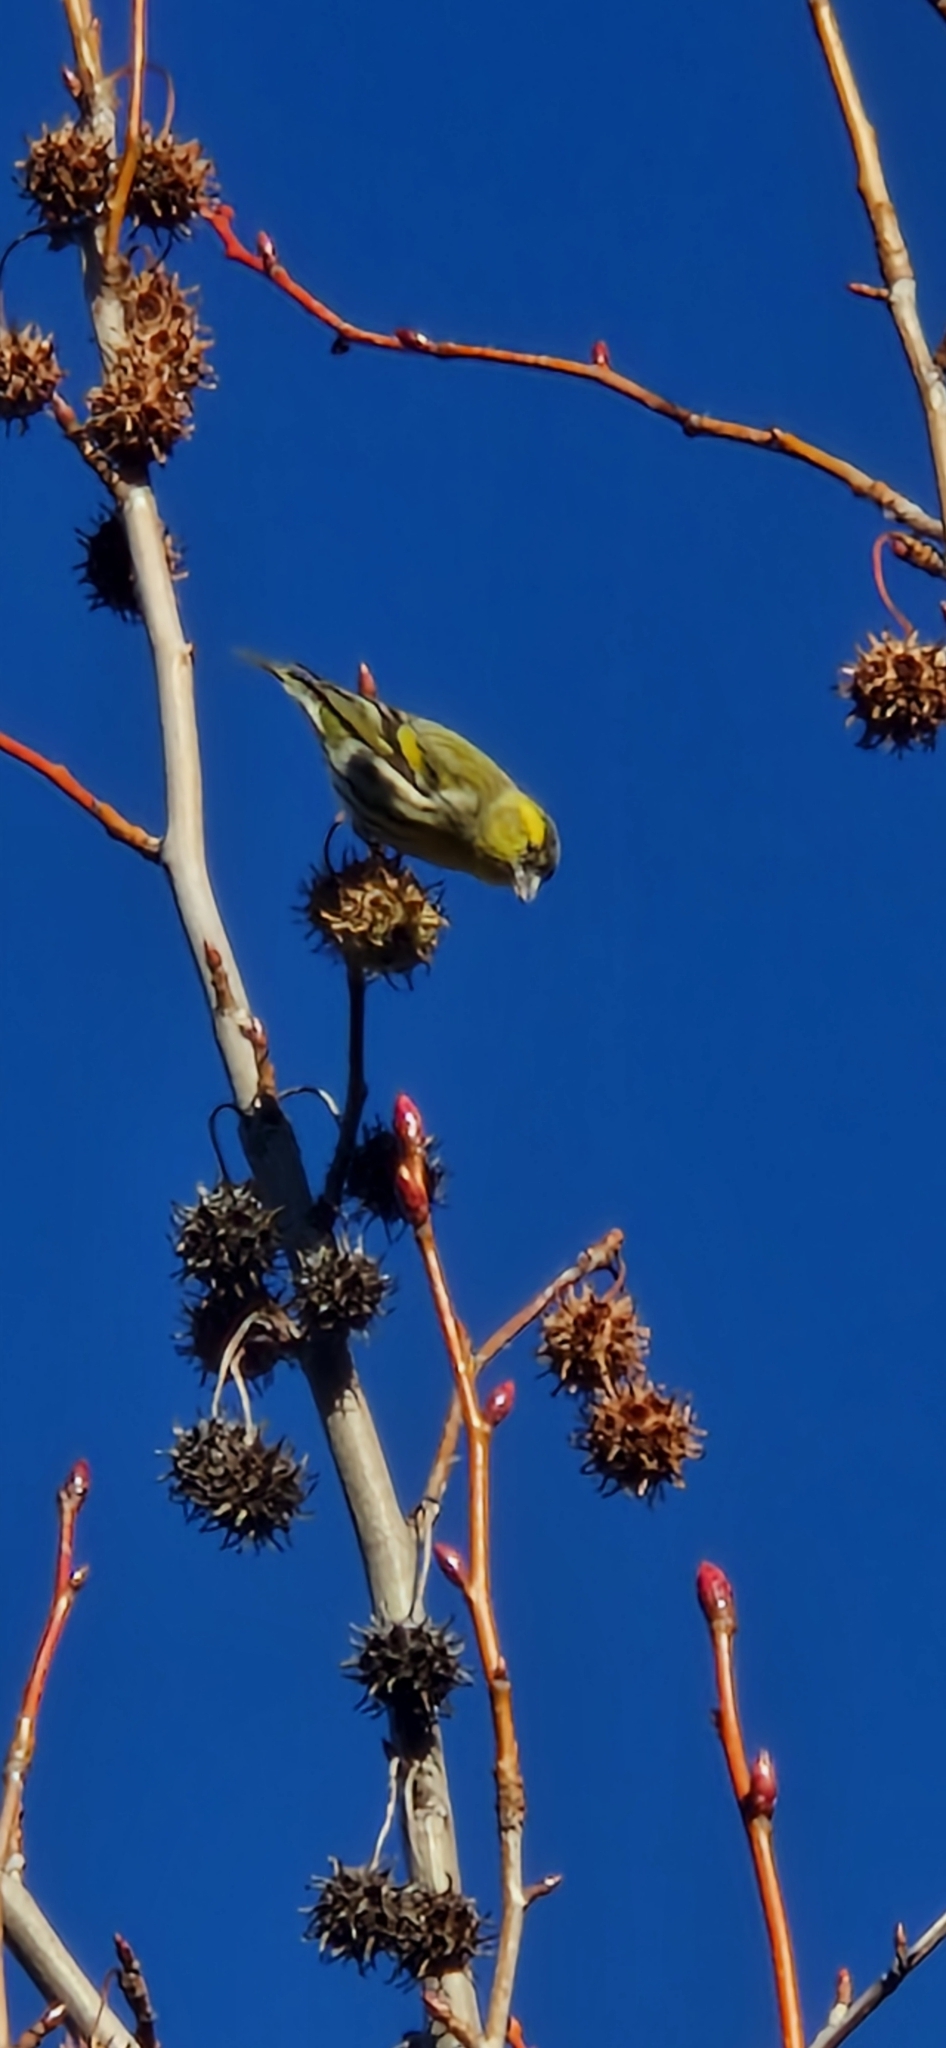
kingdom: Animalia
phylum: Chordata
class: Aves
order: Passeriformes
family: Fringillidae
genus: Spinus
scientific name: Spinus spinus
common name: Eurasian siskin
